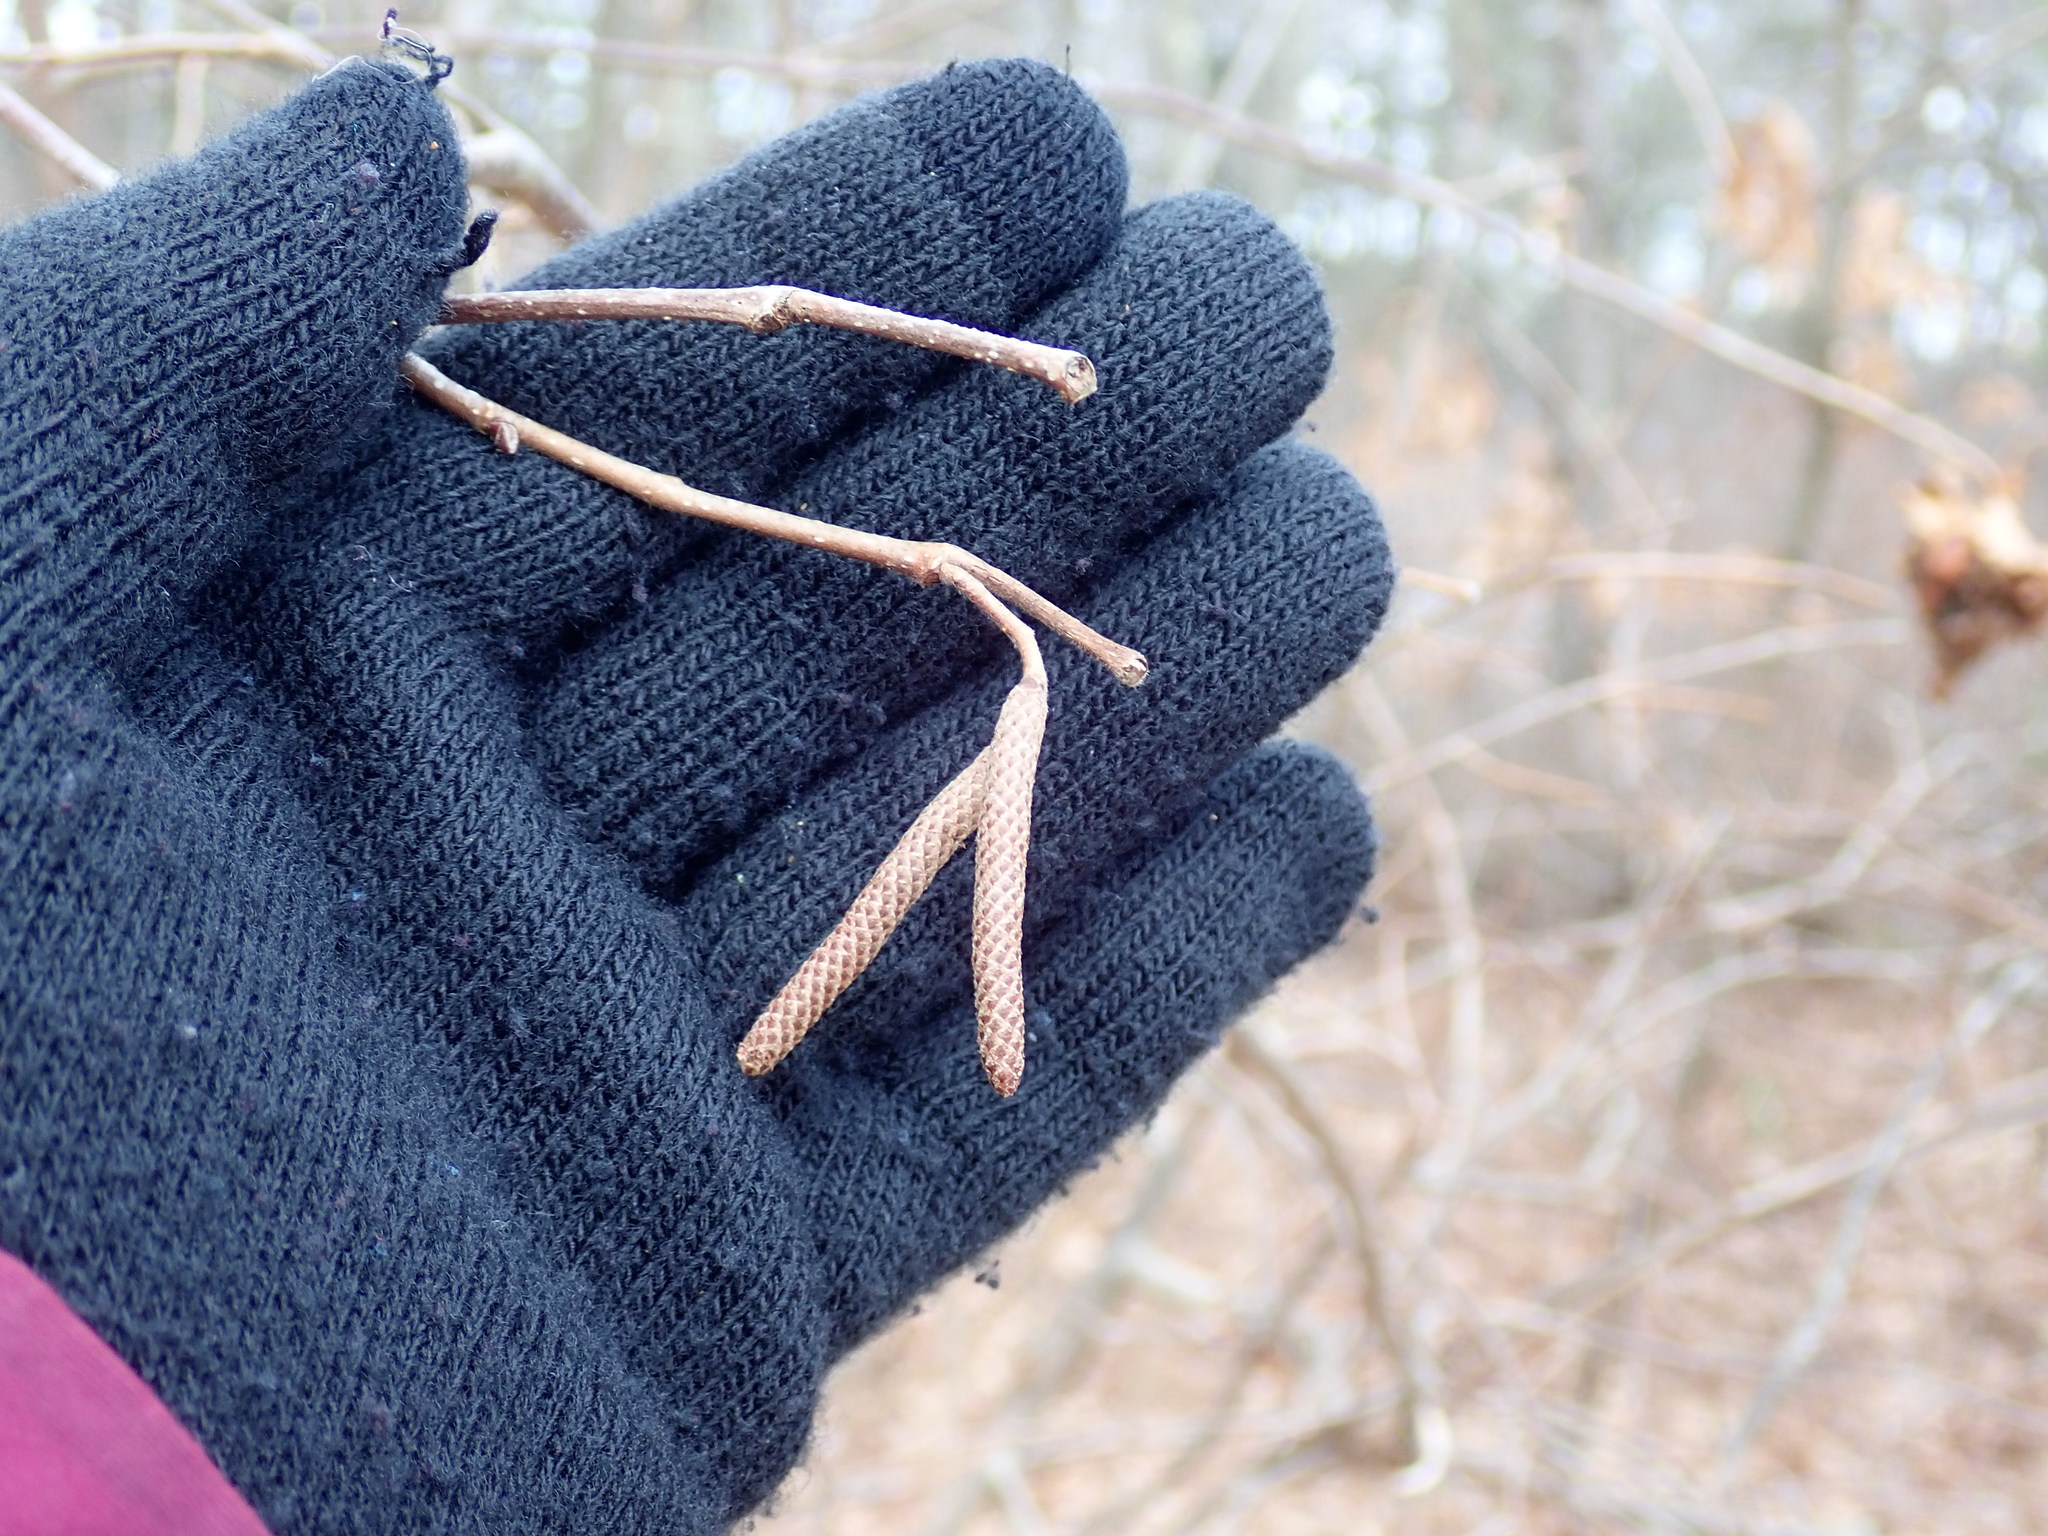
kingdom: Plantae
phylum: Tracheophyta
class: Magnoliopsida
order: Fagales
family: Betulaceae
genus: Corylus
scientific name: Corylus americana
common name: American hazel
